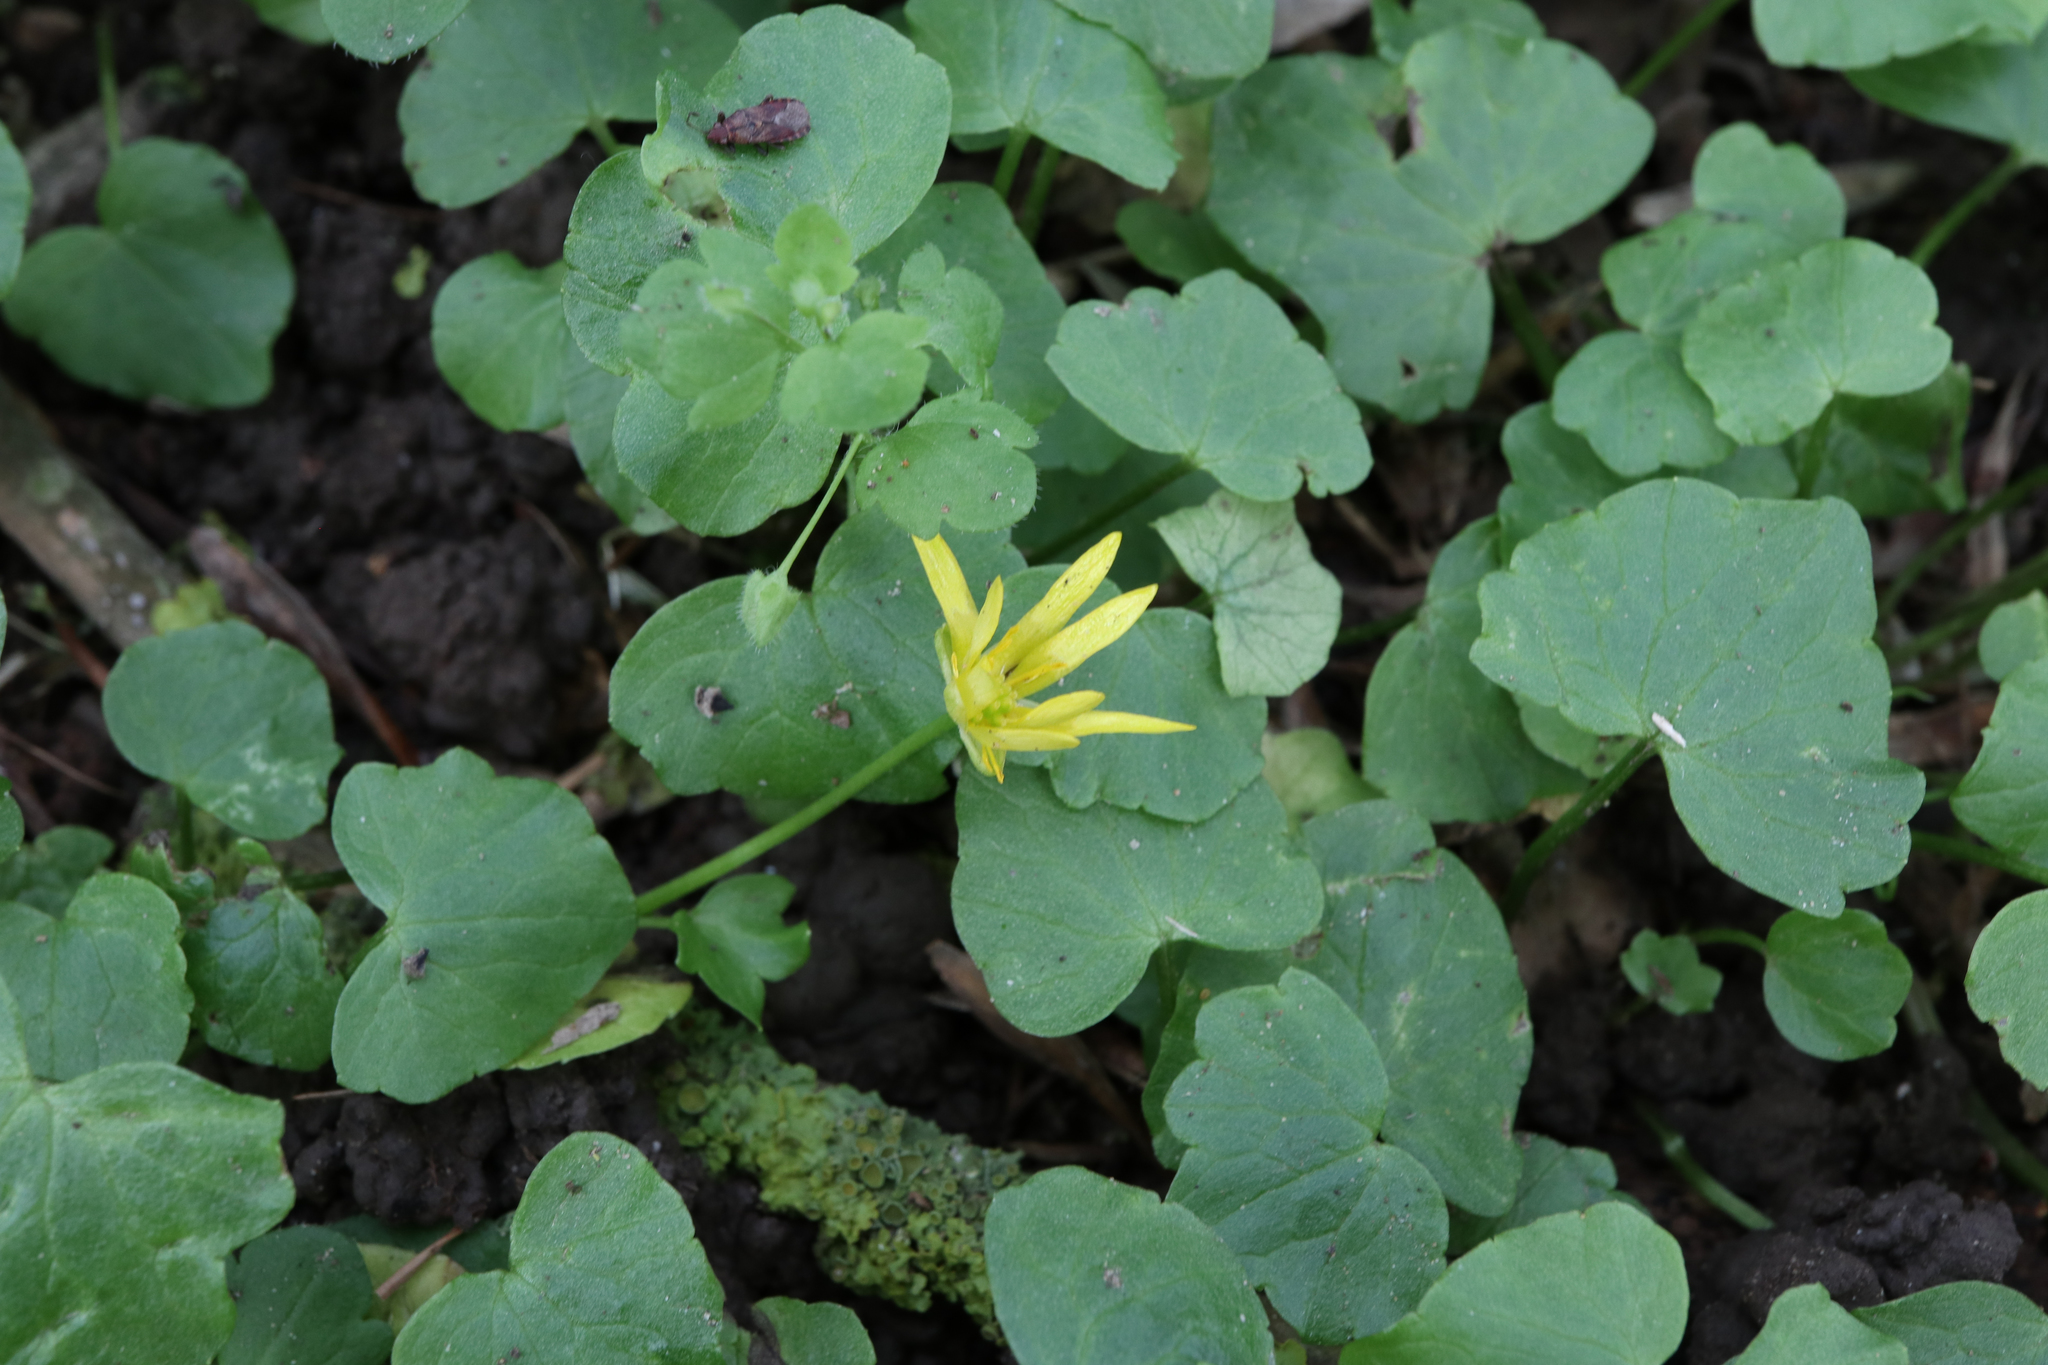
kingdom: Plantae
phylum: Tracheophyta
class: Magnoliopsida
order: Ranunculales
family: Ranunculaceae
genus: Ficaria
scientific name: Ficaria verna
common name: Lesser celandine
